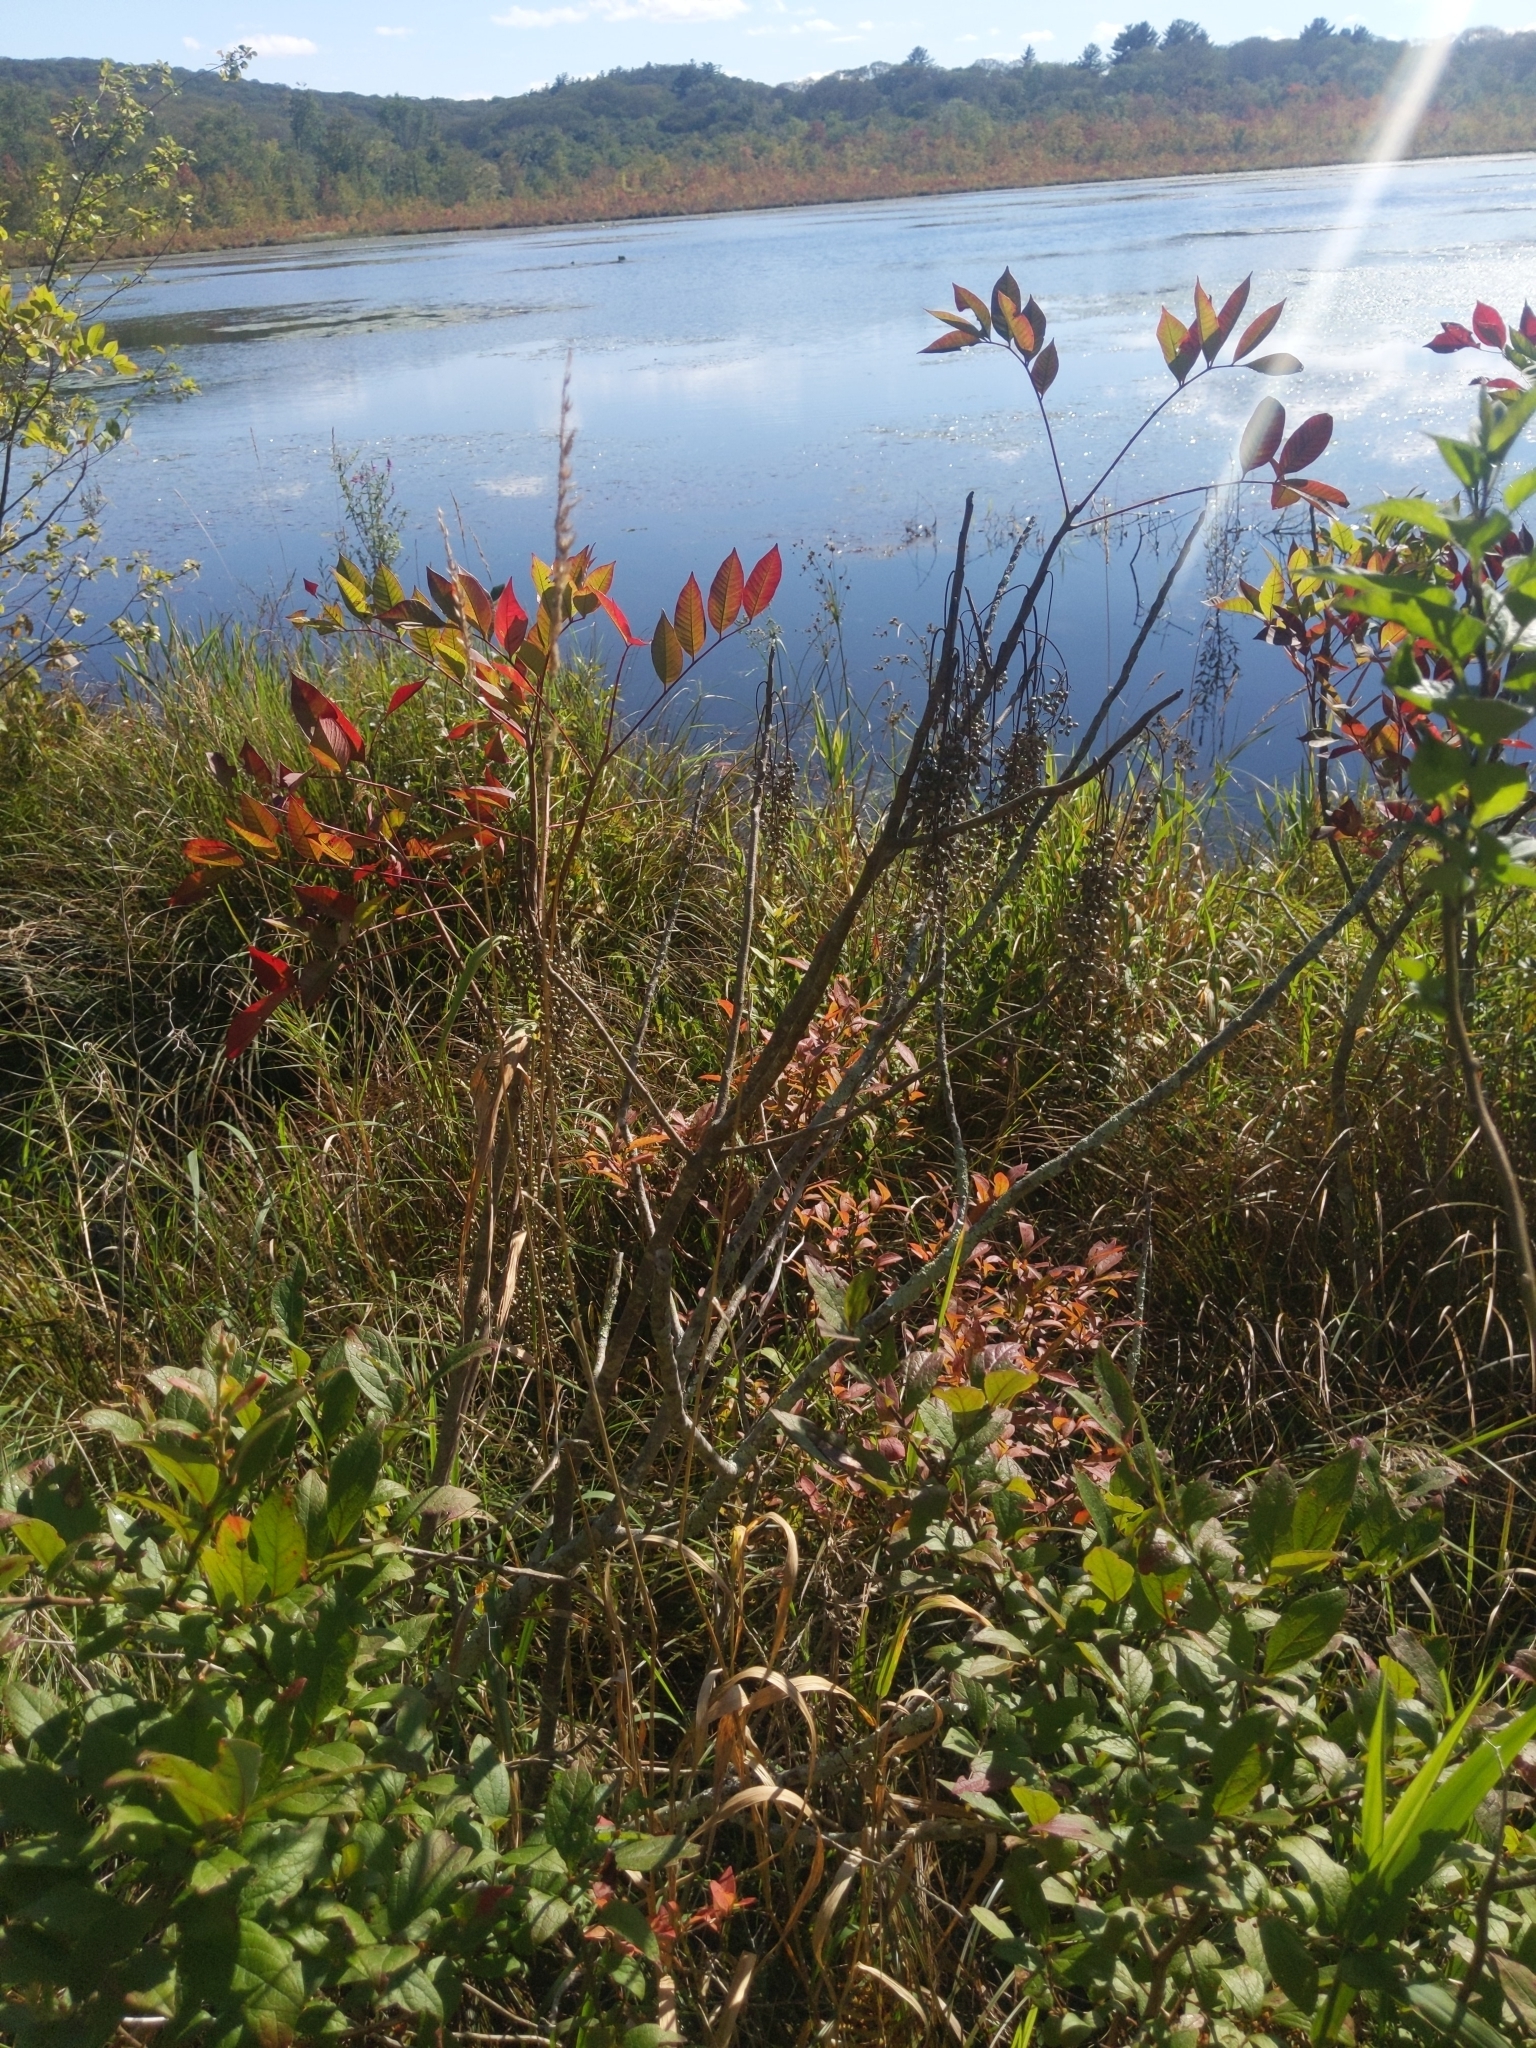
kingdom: Plantae
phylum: Tracheophyta
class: Magnoliopsida
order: Sapindales
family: Anacardiaceae
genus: Toxicodendron
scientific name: Toxicodendron vernix
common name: Poison sumac
